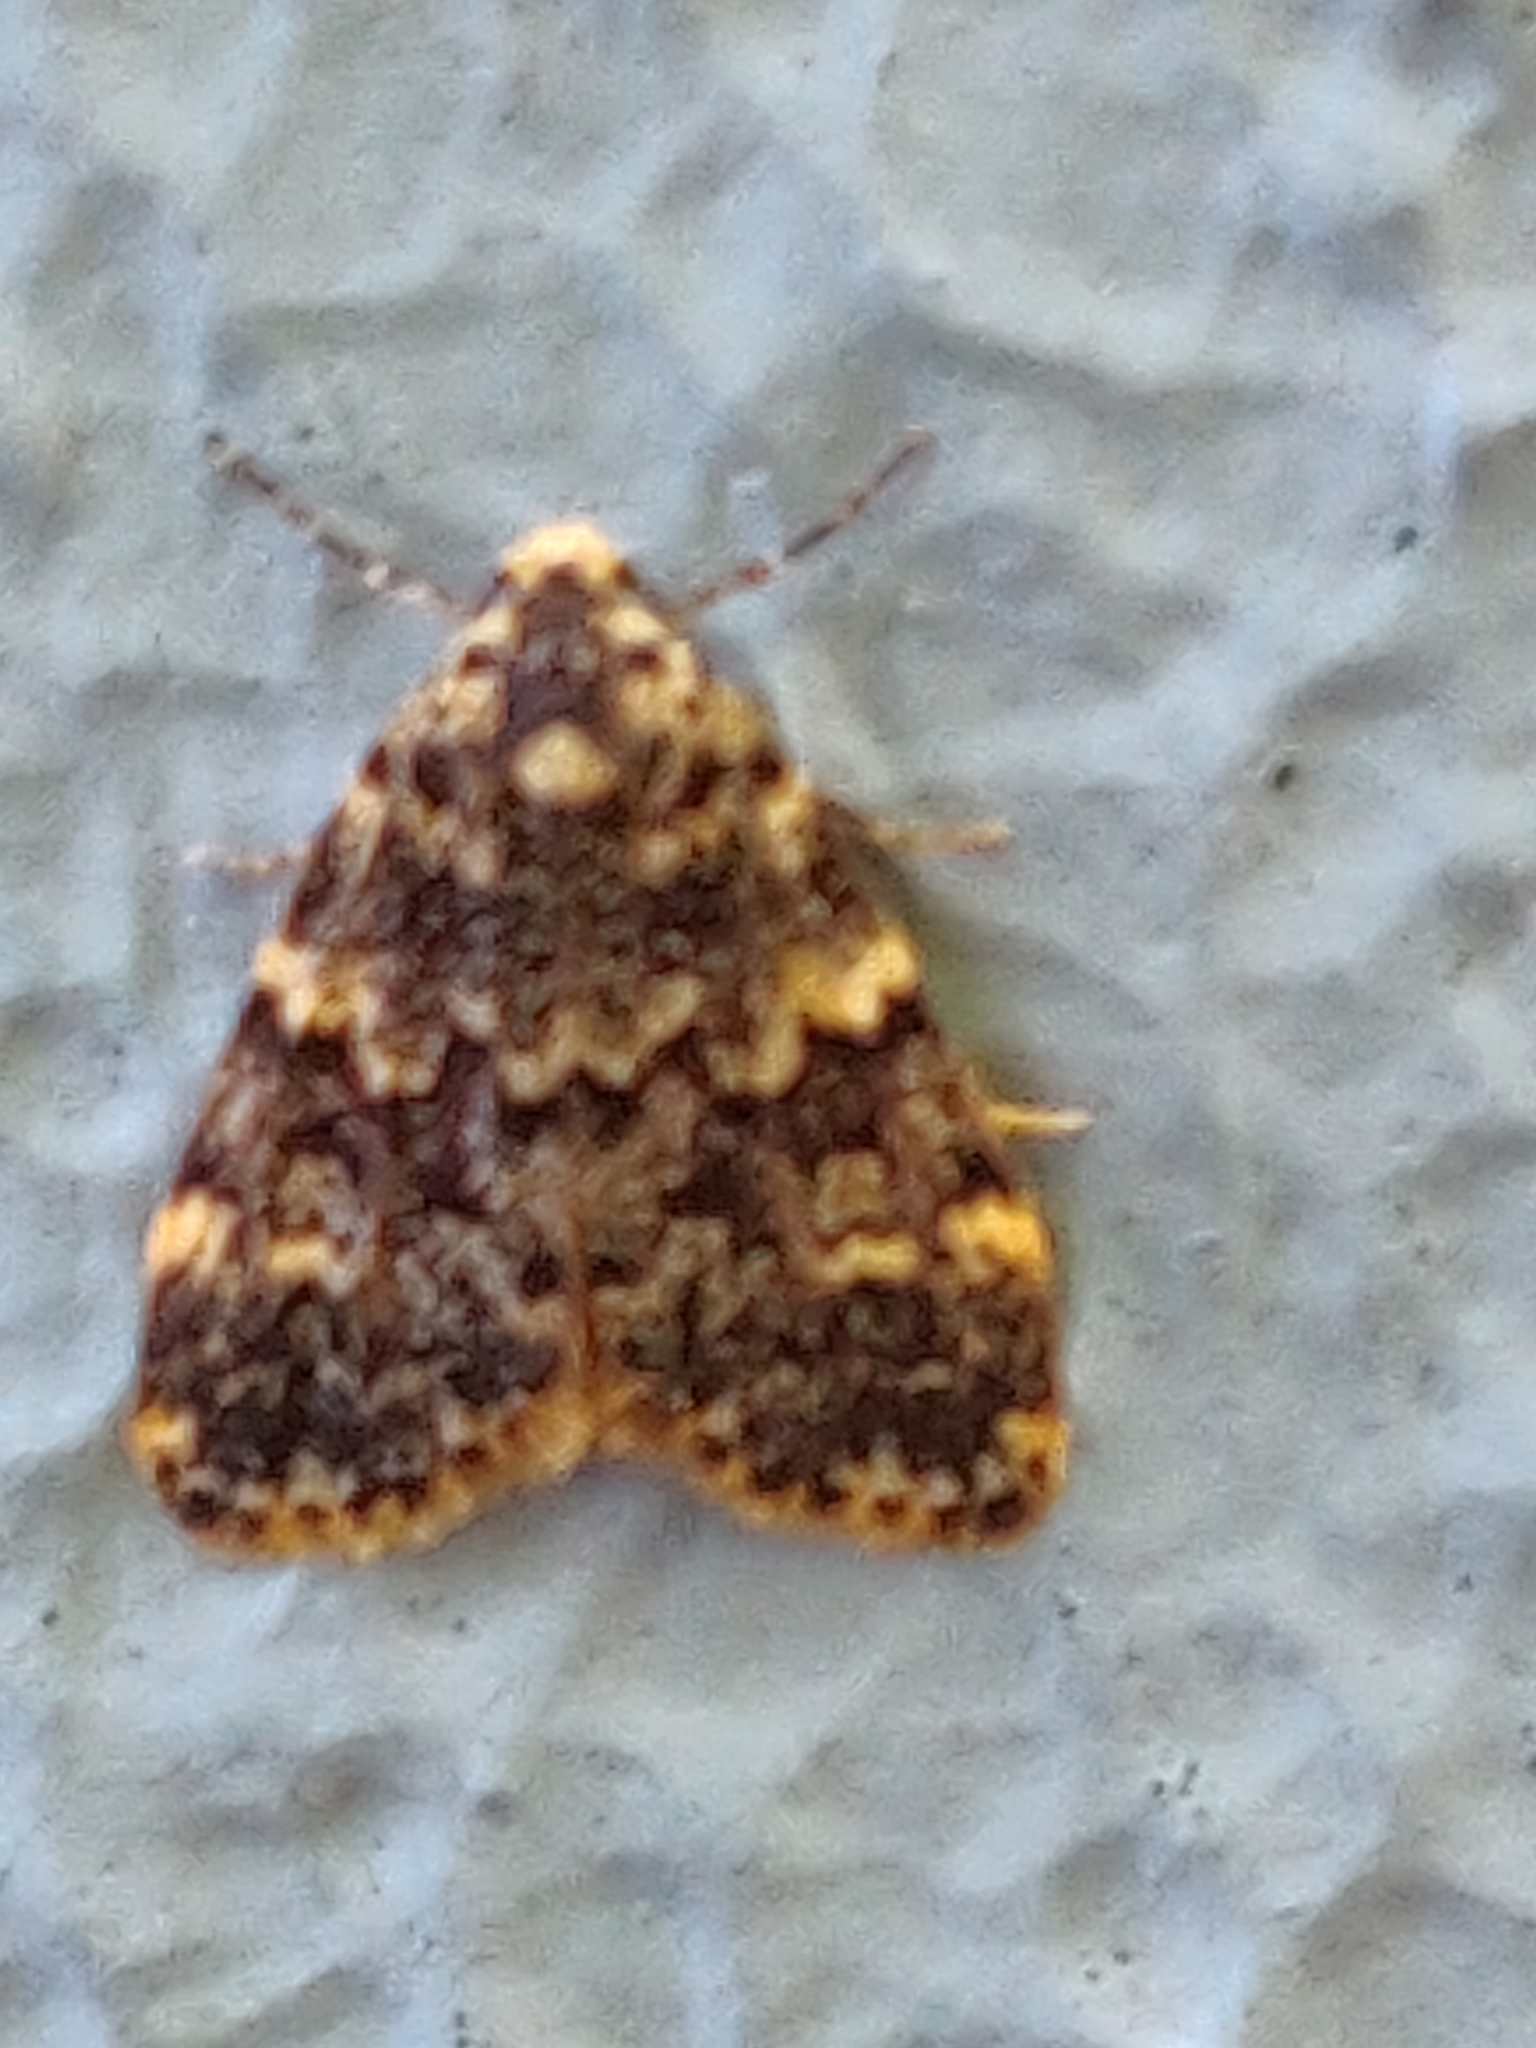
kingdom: Animalia
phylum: Arthropoda
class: Insecta
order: Lepidoptera
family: Erebidae
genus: Halone
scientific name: Halone coryphoea
